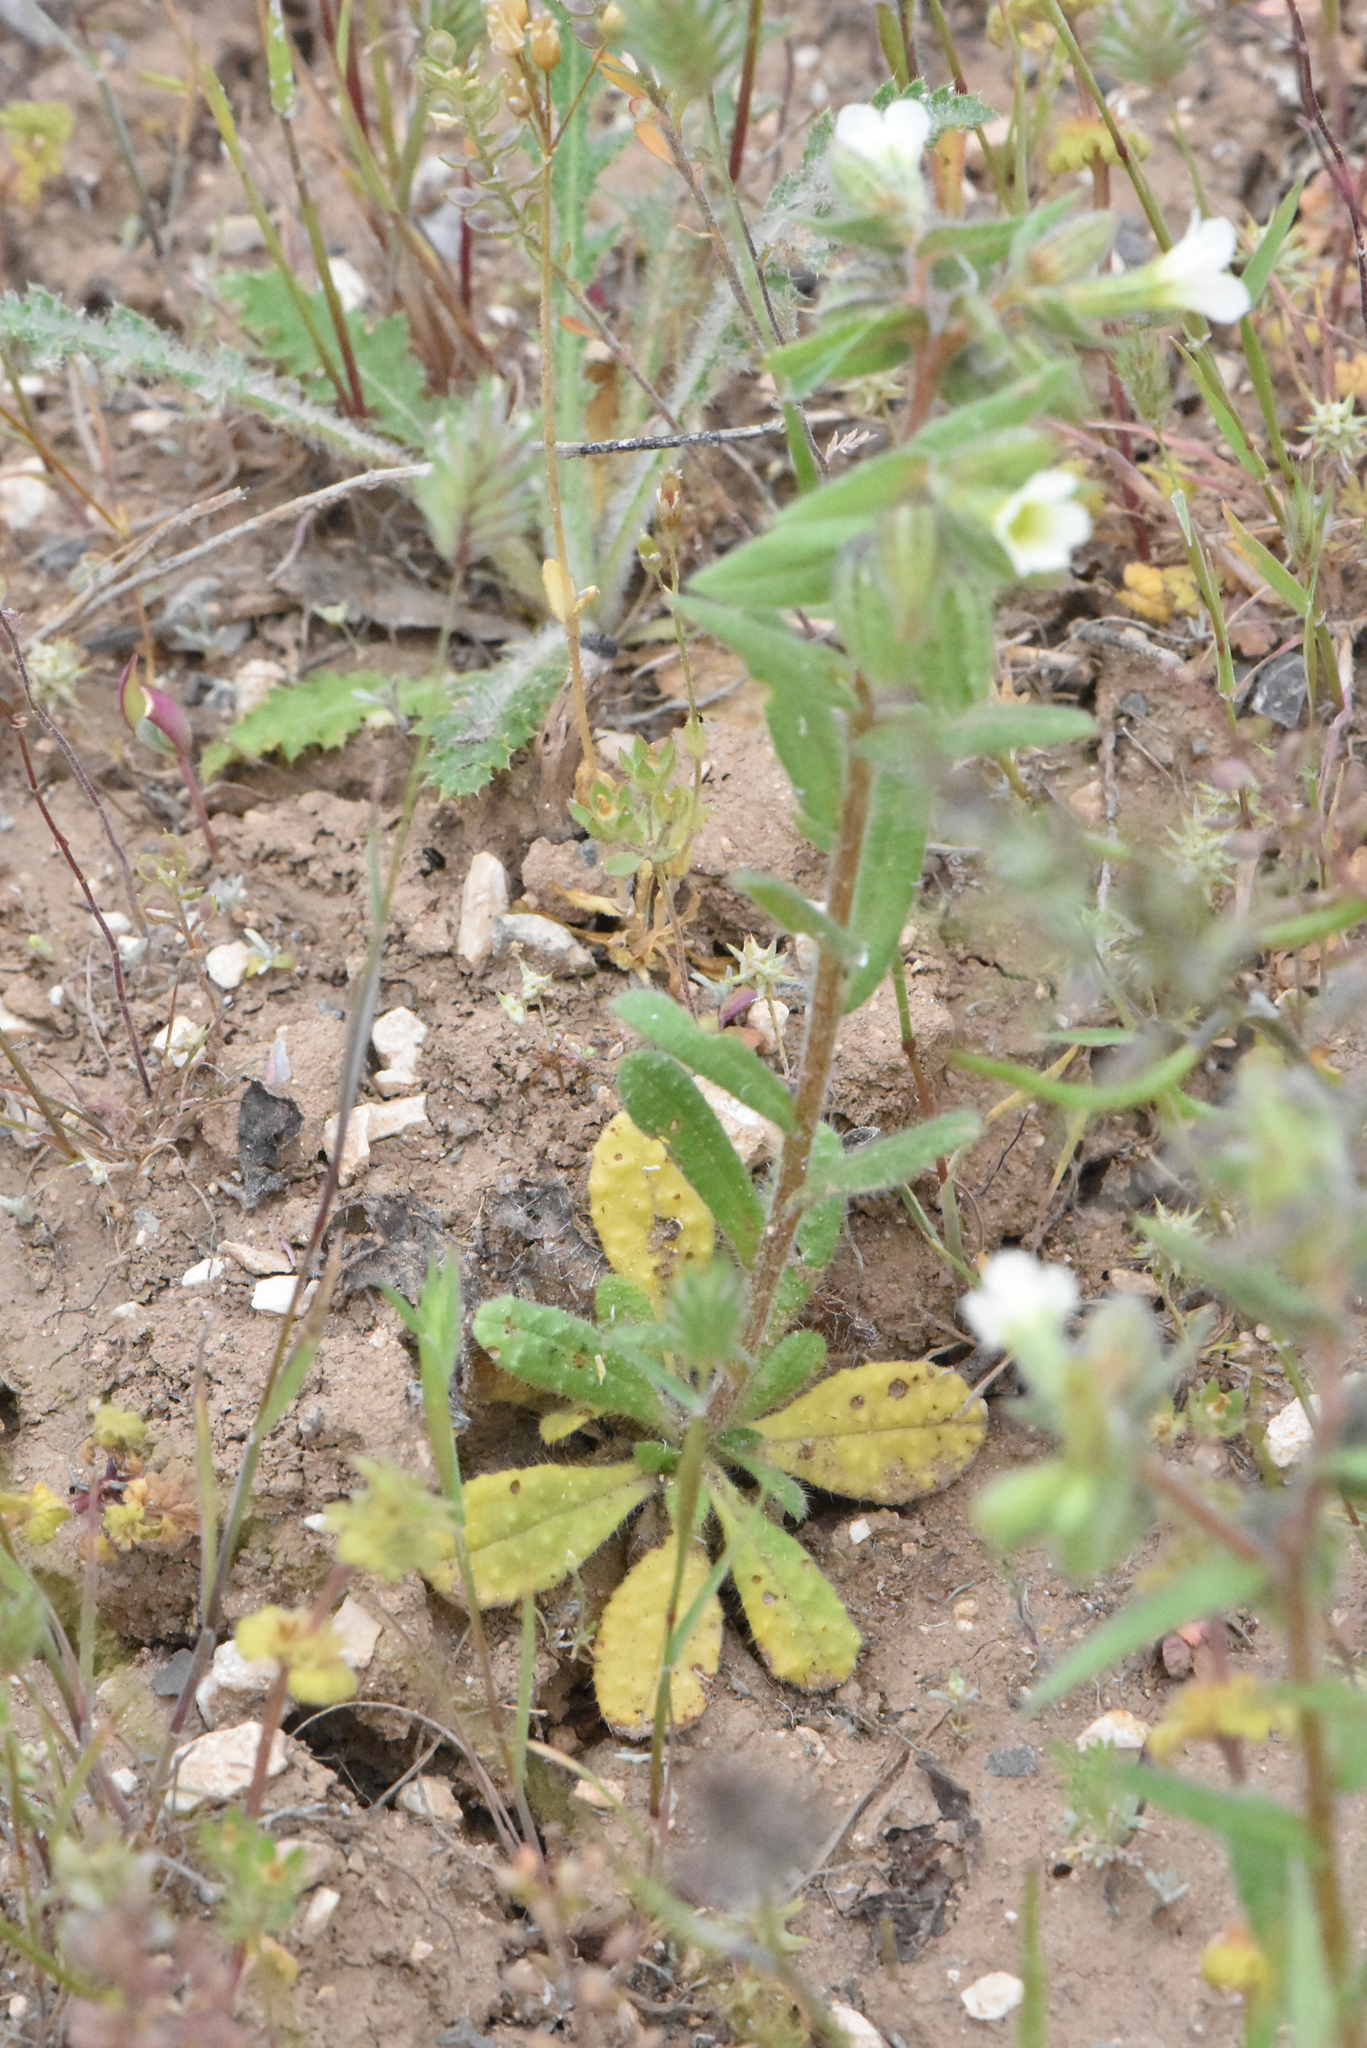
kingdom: Plantae
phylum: Tracheophyta
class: Magnoliopsida
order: Boraginales
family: Boraginaceae
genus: Nonea
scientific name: Nonea lutea
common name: Yellow nonea
